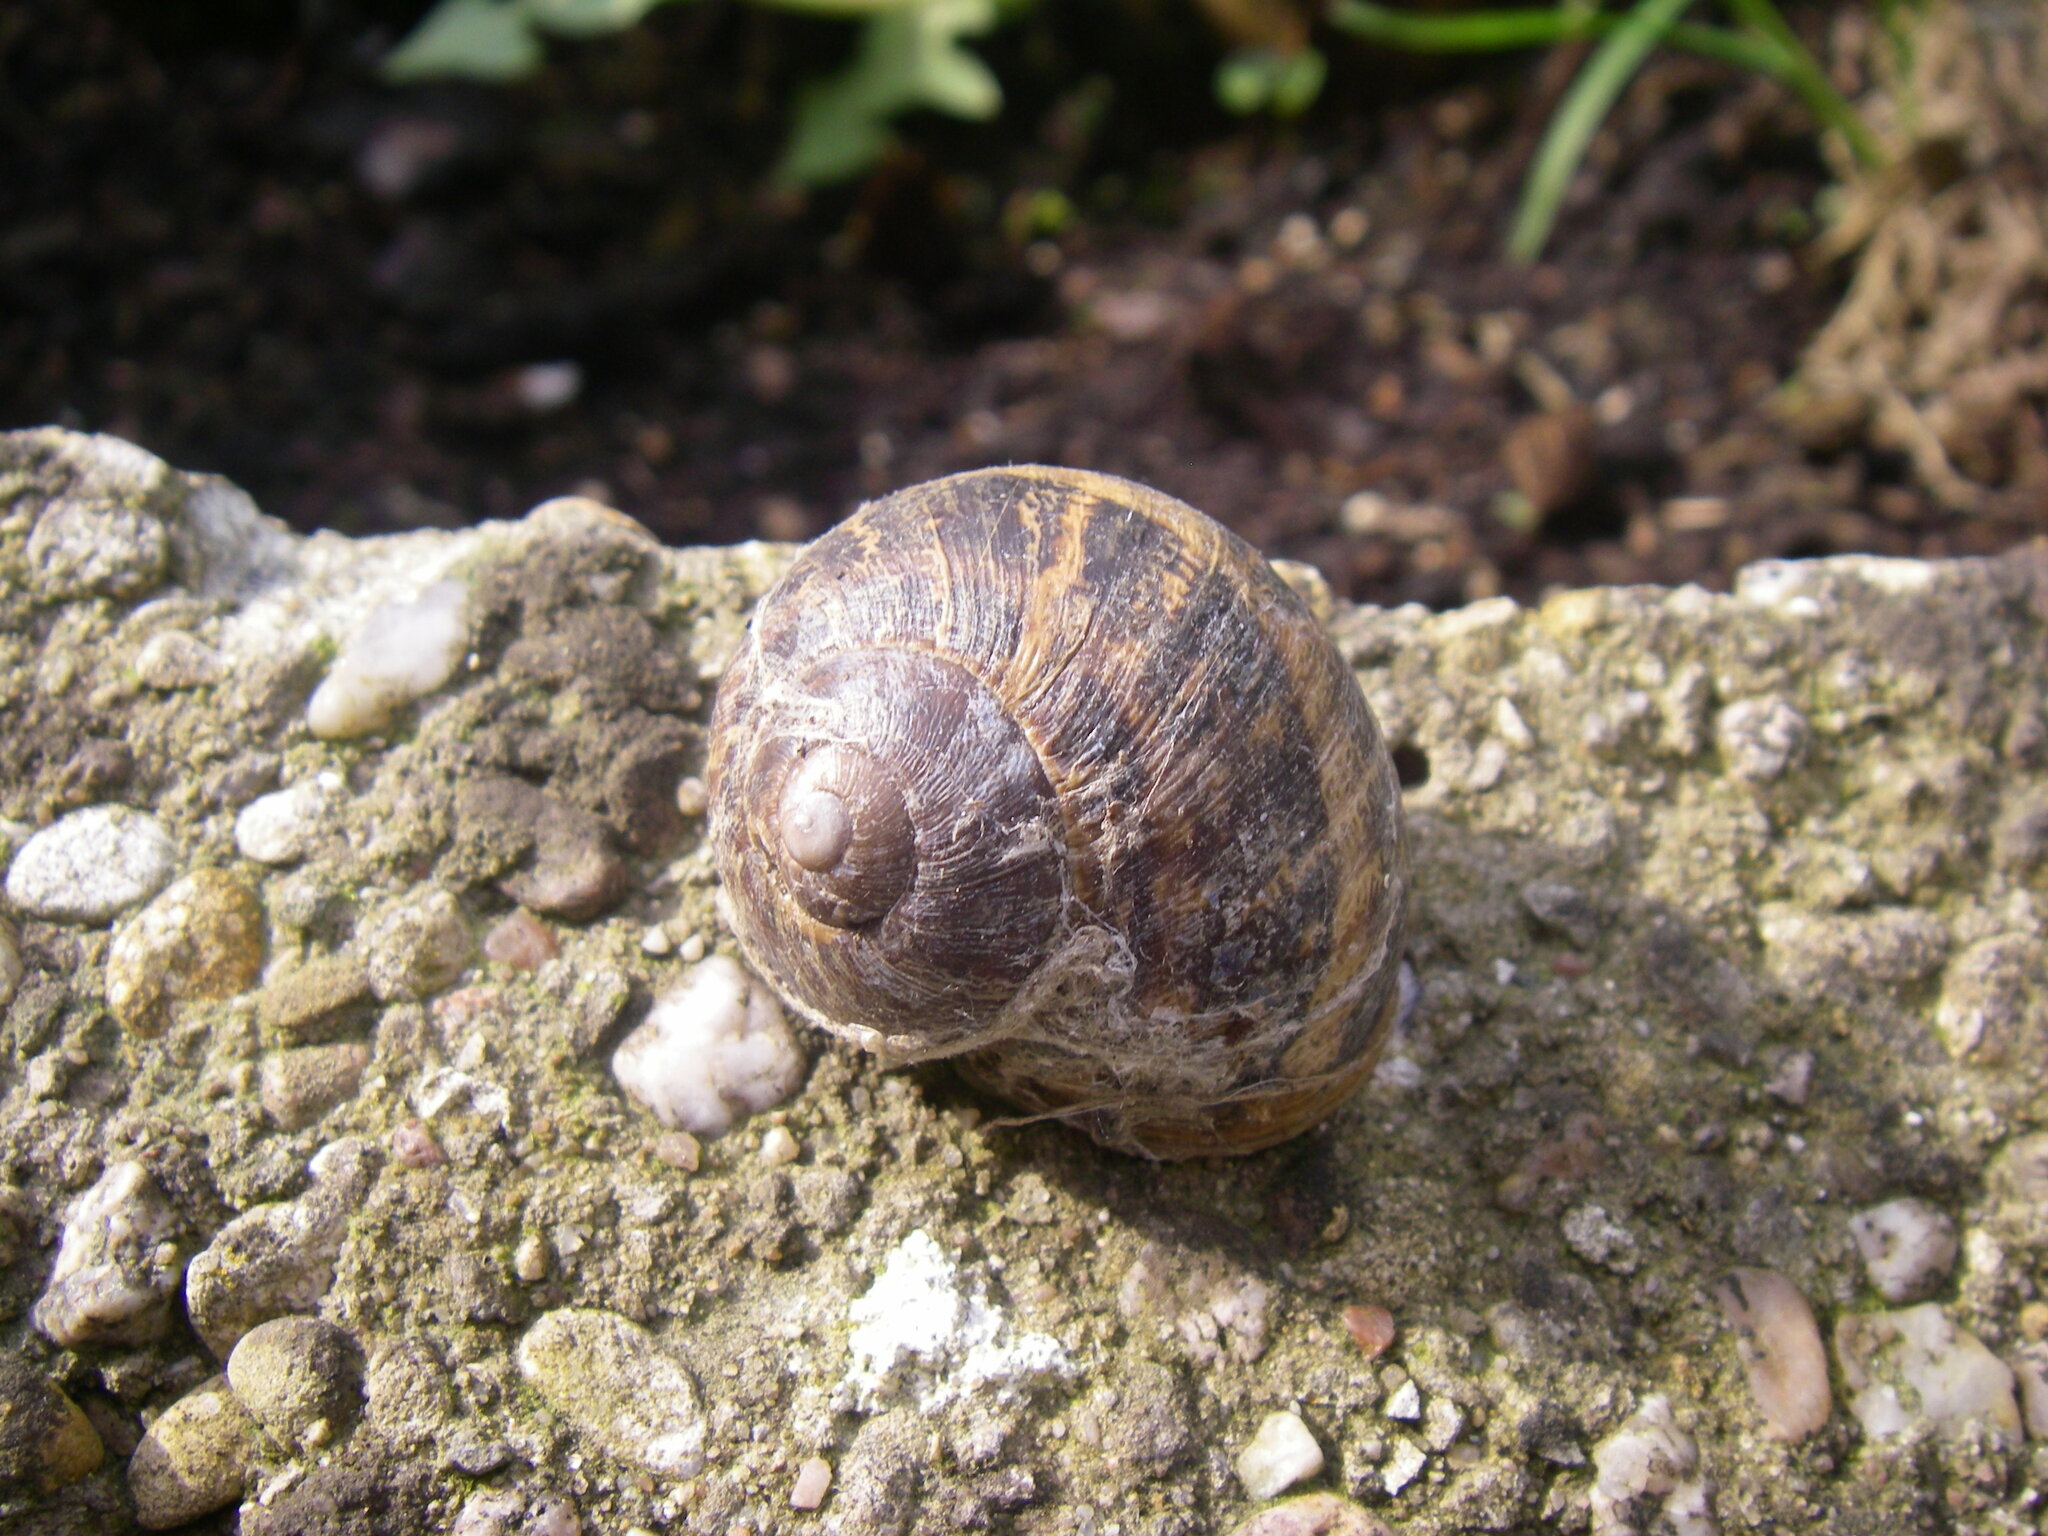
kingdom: Animalia
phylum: Mollusca
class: Gastropoda
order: Stylommatophora
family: Helicidae
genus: Cornu
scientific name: Cornu aspersum
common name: Brown garden snail
